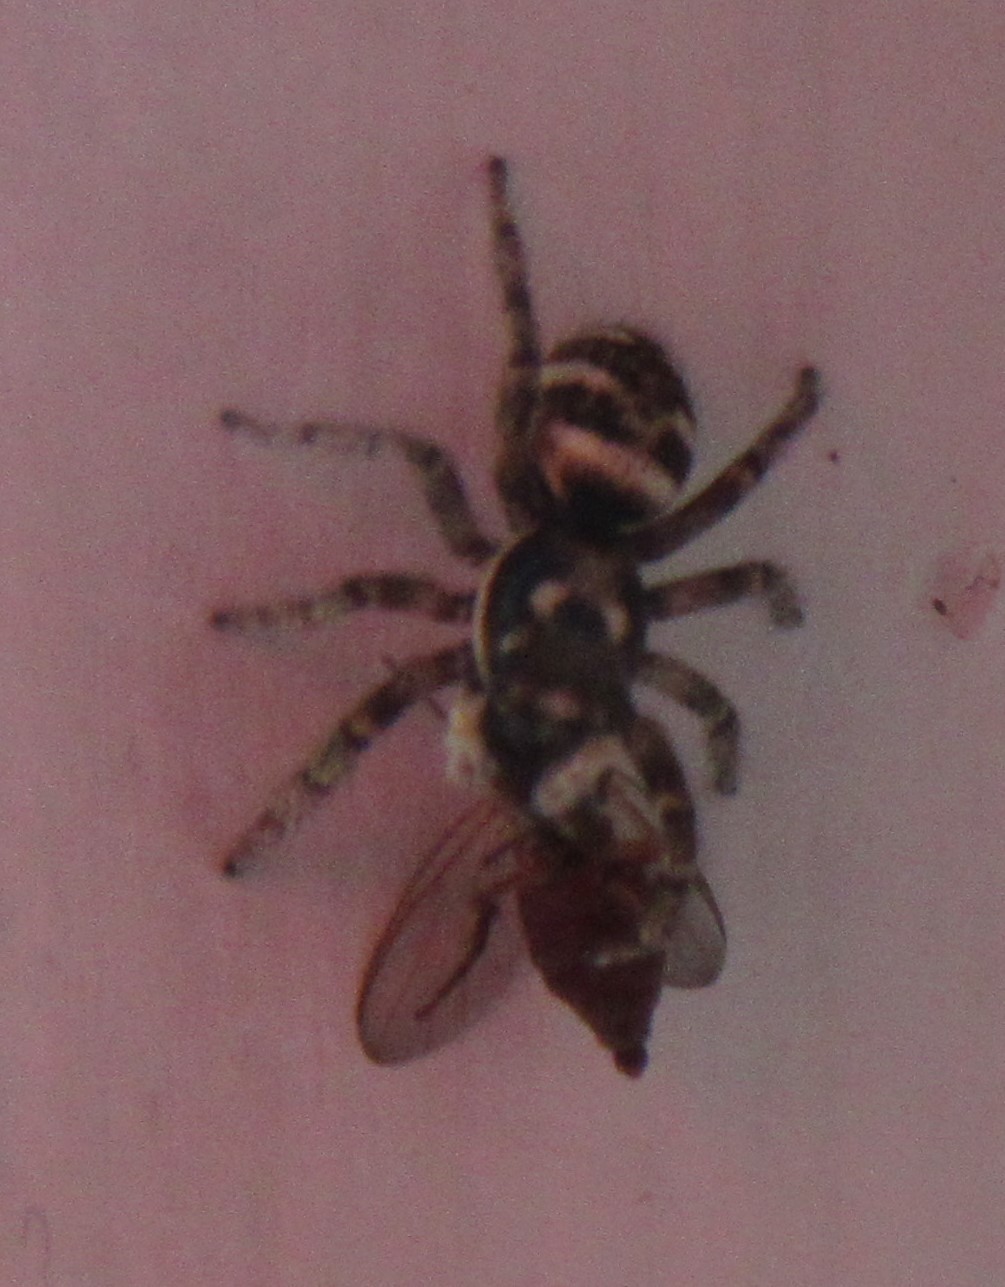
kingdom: Animalia
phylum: Arthropoda
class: Arachnida
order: Araneae
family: Salticidae
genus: Salticus
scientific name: Salticus scenicus
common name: Zebra jumper
